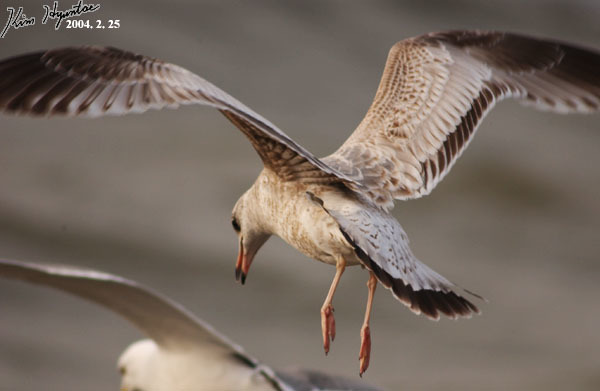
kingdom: Animalia
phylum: Chordata
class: Aves
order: Charadriiformes
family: Laridae
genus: Larus
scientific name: Larus canus
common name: Mew gull
